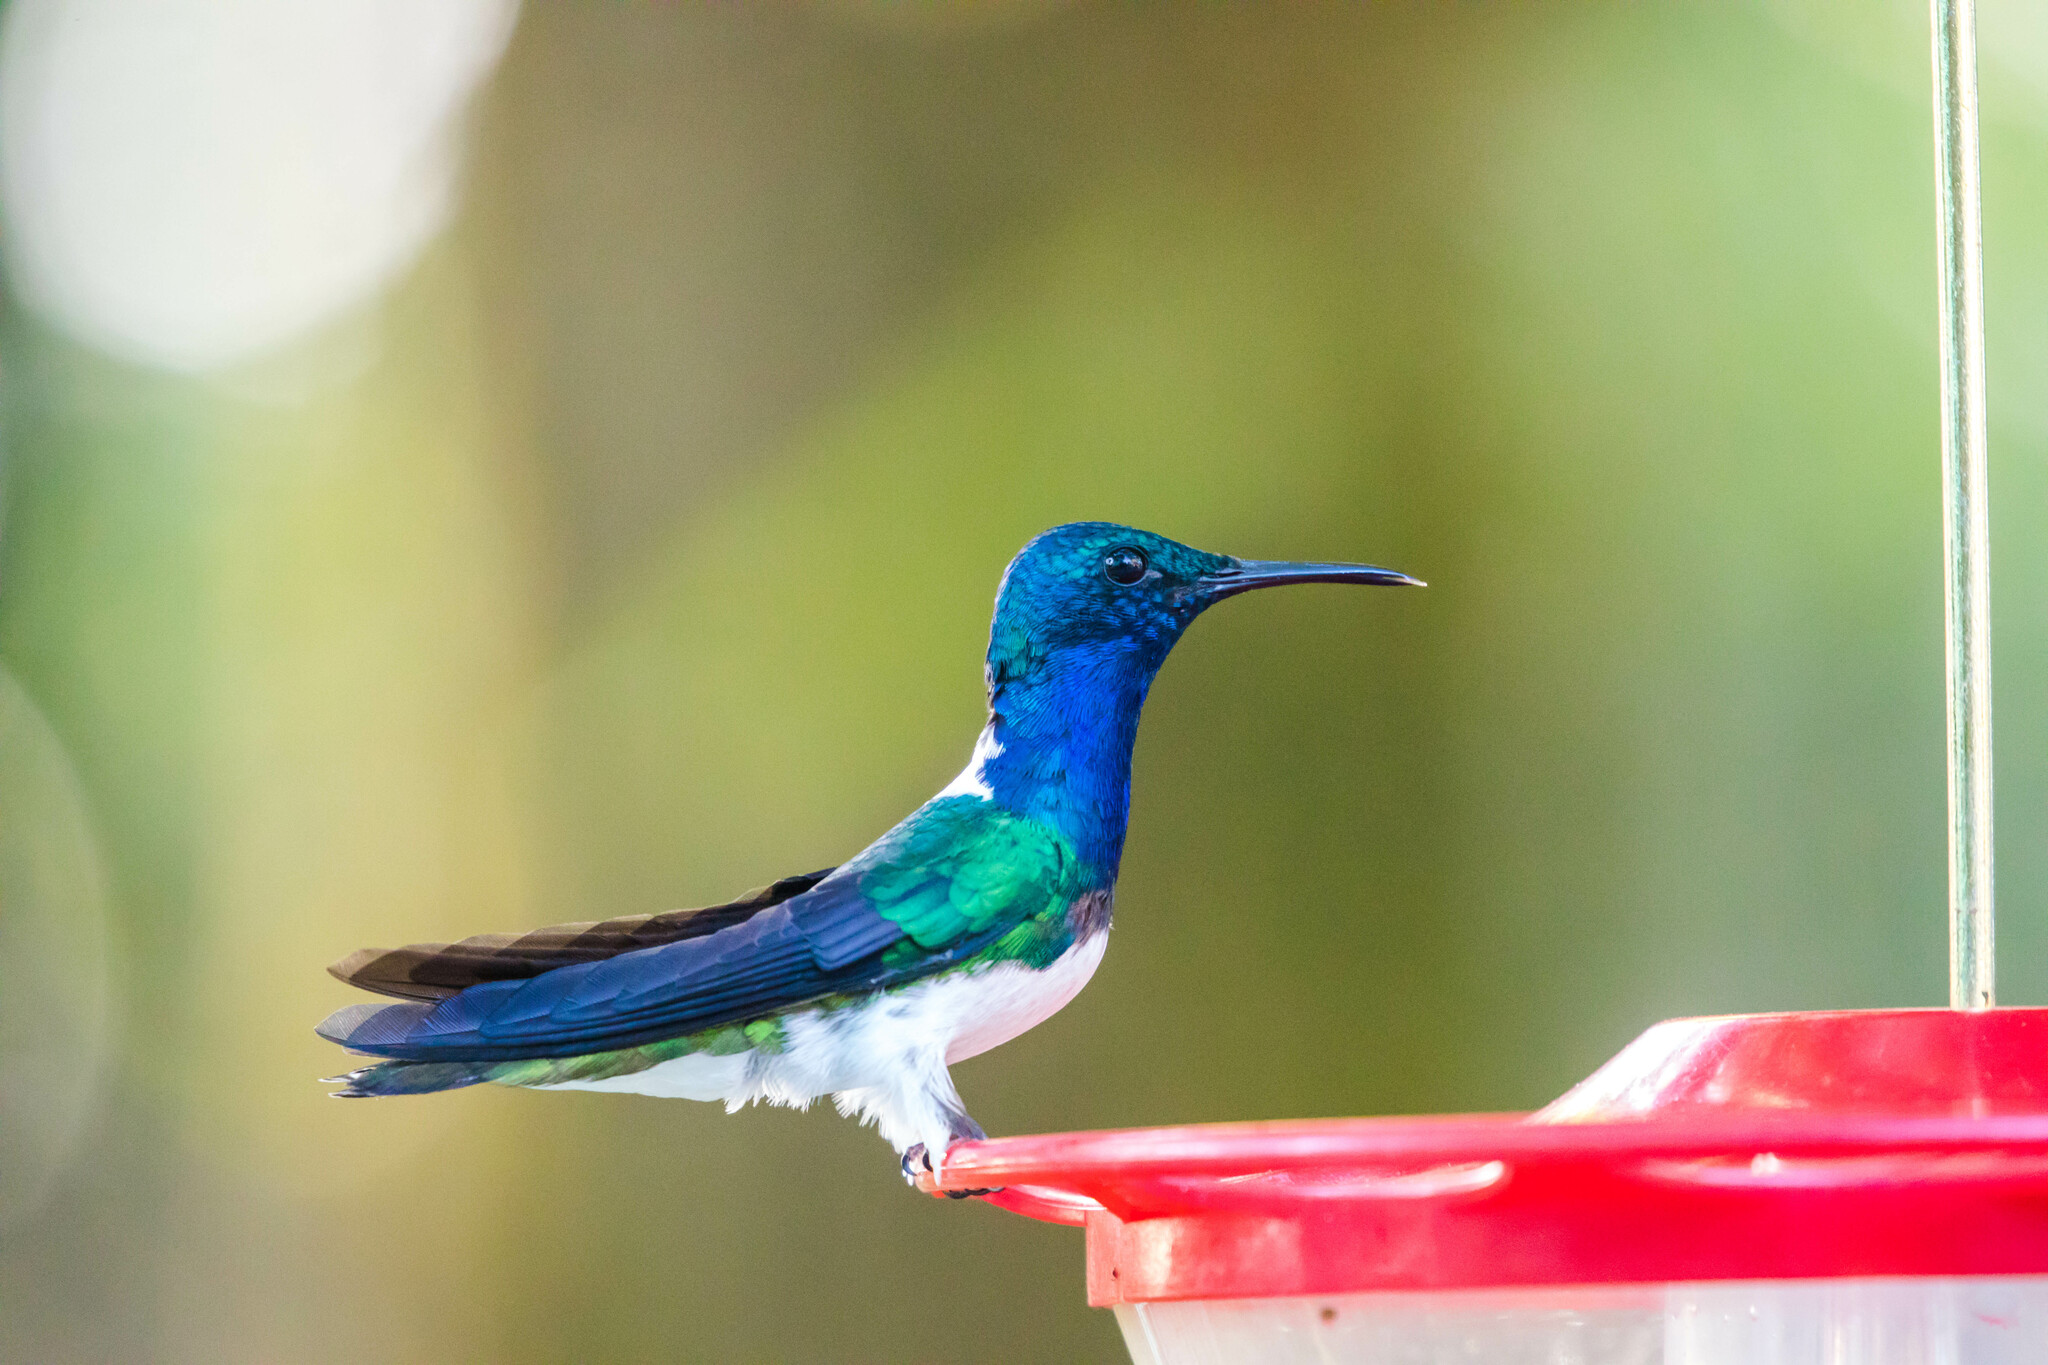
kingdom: Animalia
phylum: Chordata
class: Aves
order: Apodiformes
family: Trochilidae
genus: Florisuga
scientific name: Florisuga mellivora
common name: White-necked jacobin
